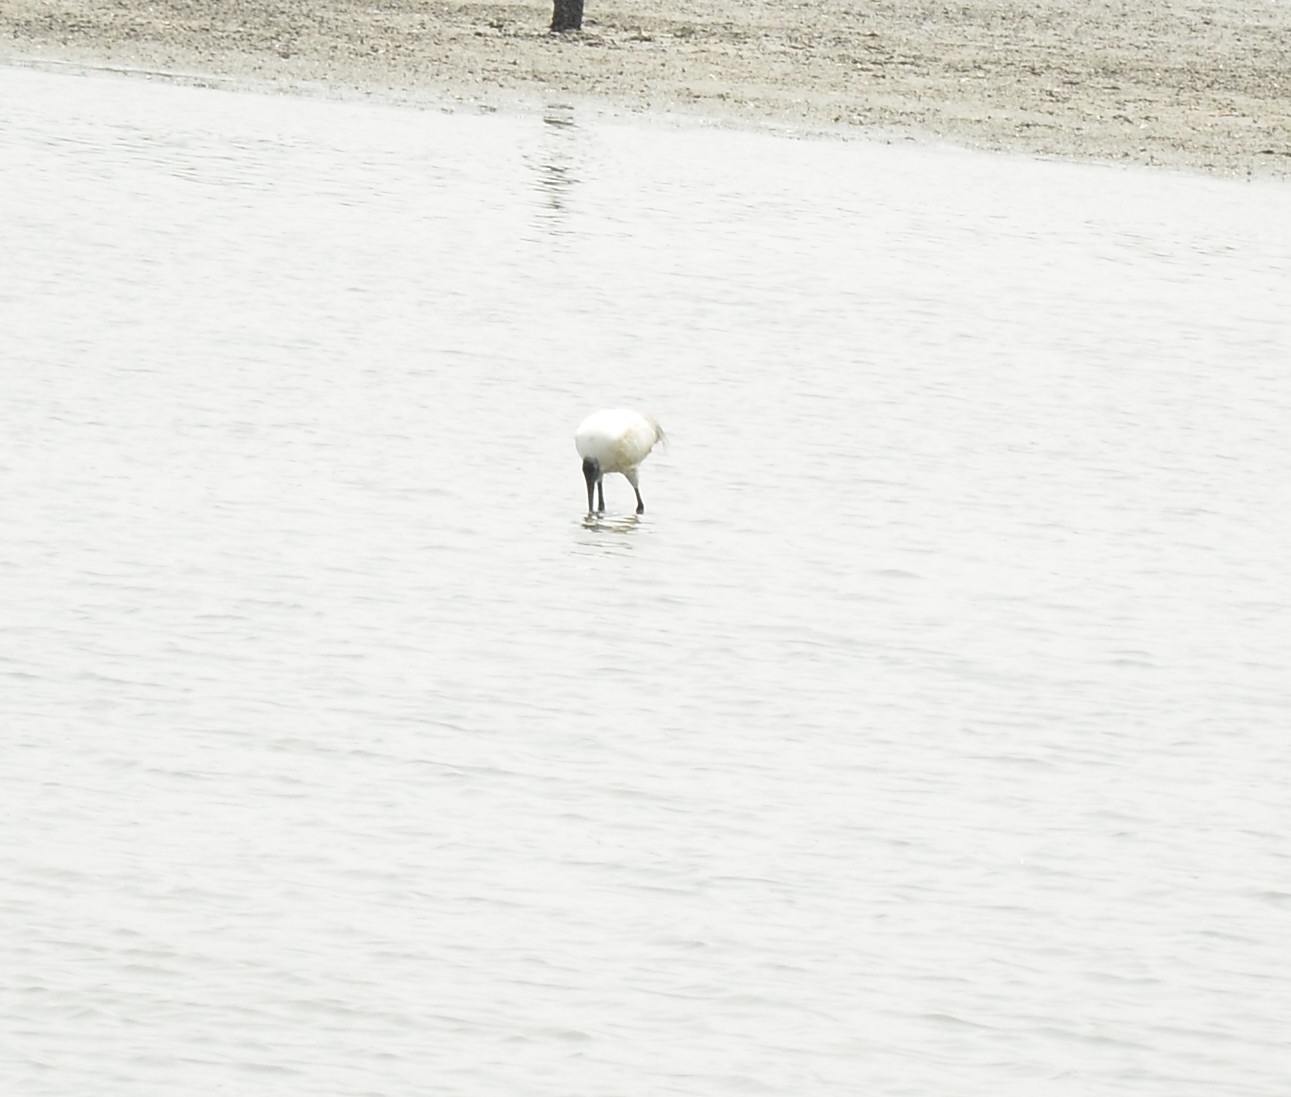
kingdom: Animalia
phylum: Chordata
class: Aves
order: Pelecaniformes
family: Threskiornithidae
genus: Threskiornis
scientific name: Threskiornis melanocephalus
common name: Black-headed ibis
